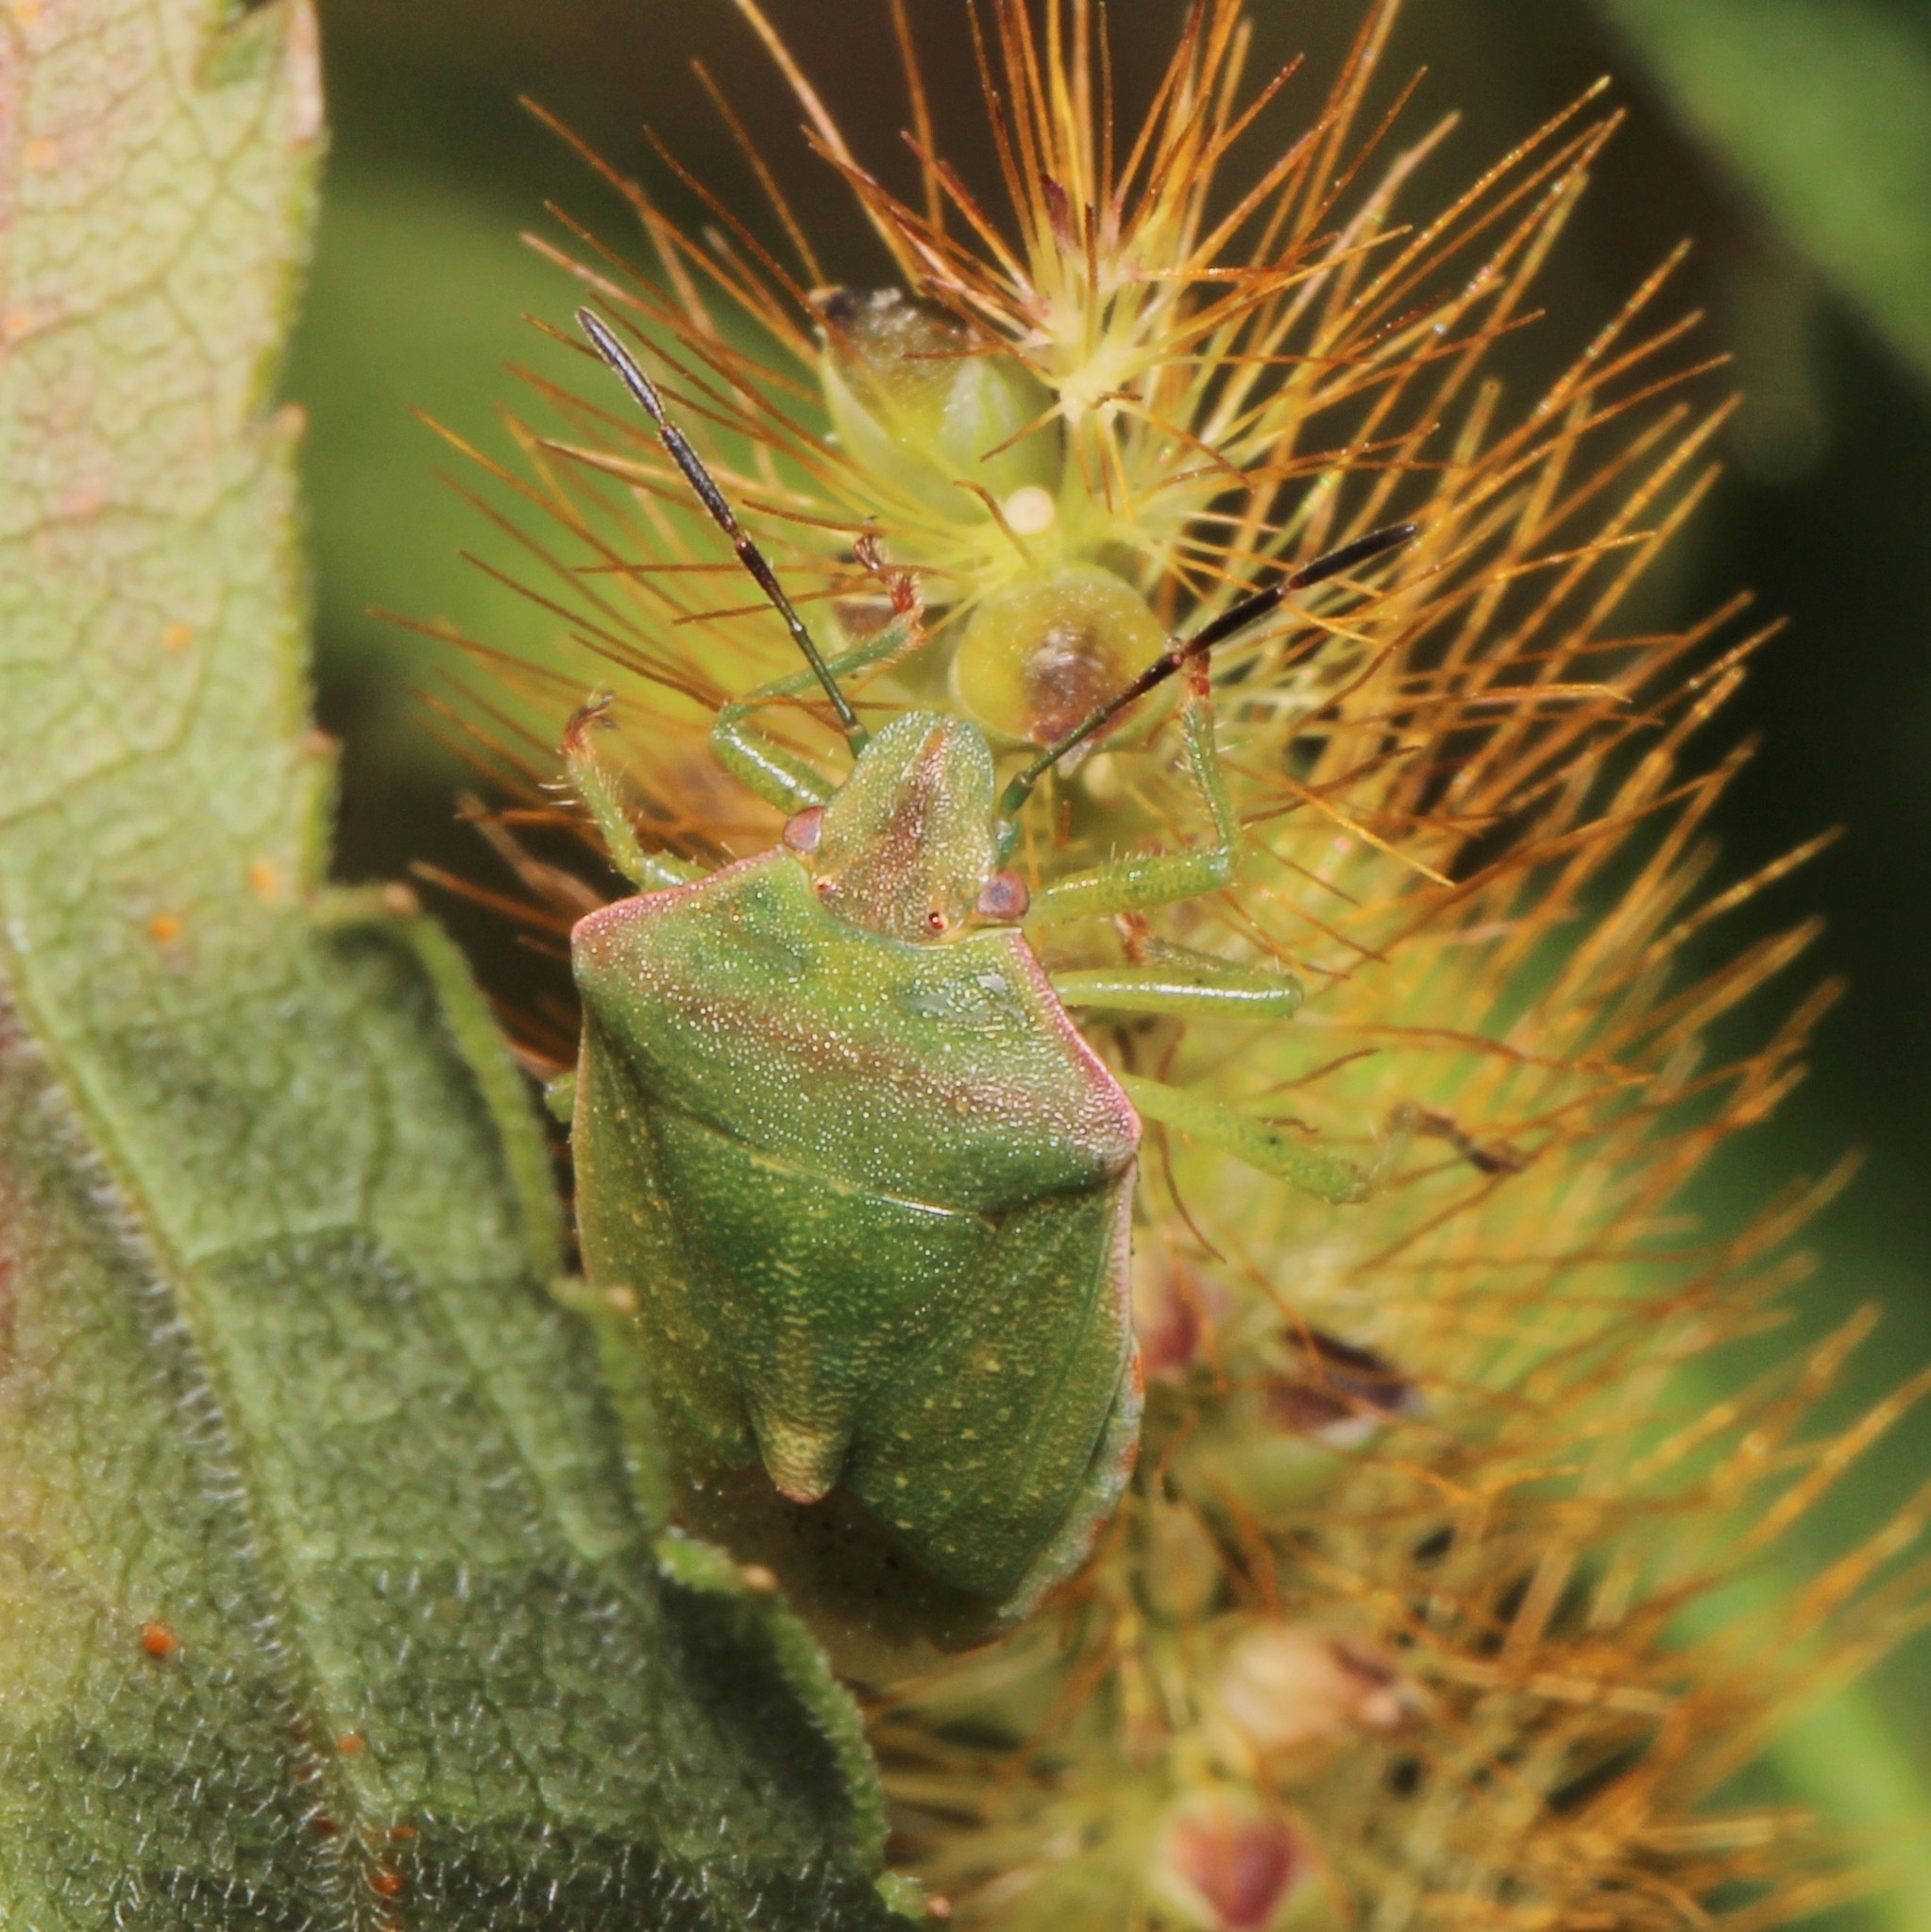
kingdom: Animalia
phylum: Arthropoda
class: Insecta
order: Hemiptera
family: Pentatomidae
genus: Thyanta
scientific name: Thyanta custator
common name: Stink bug
